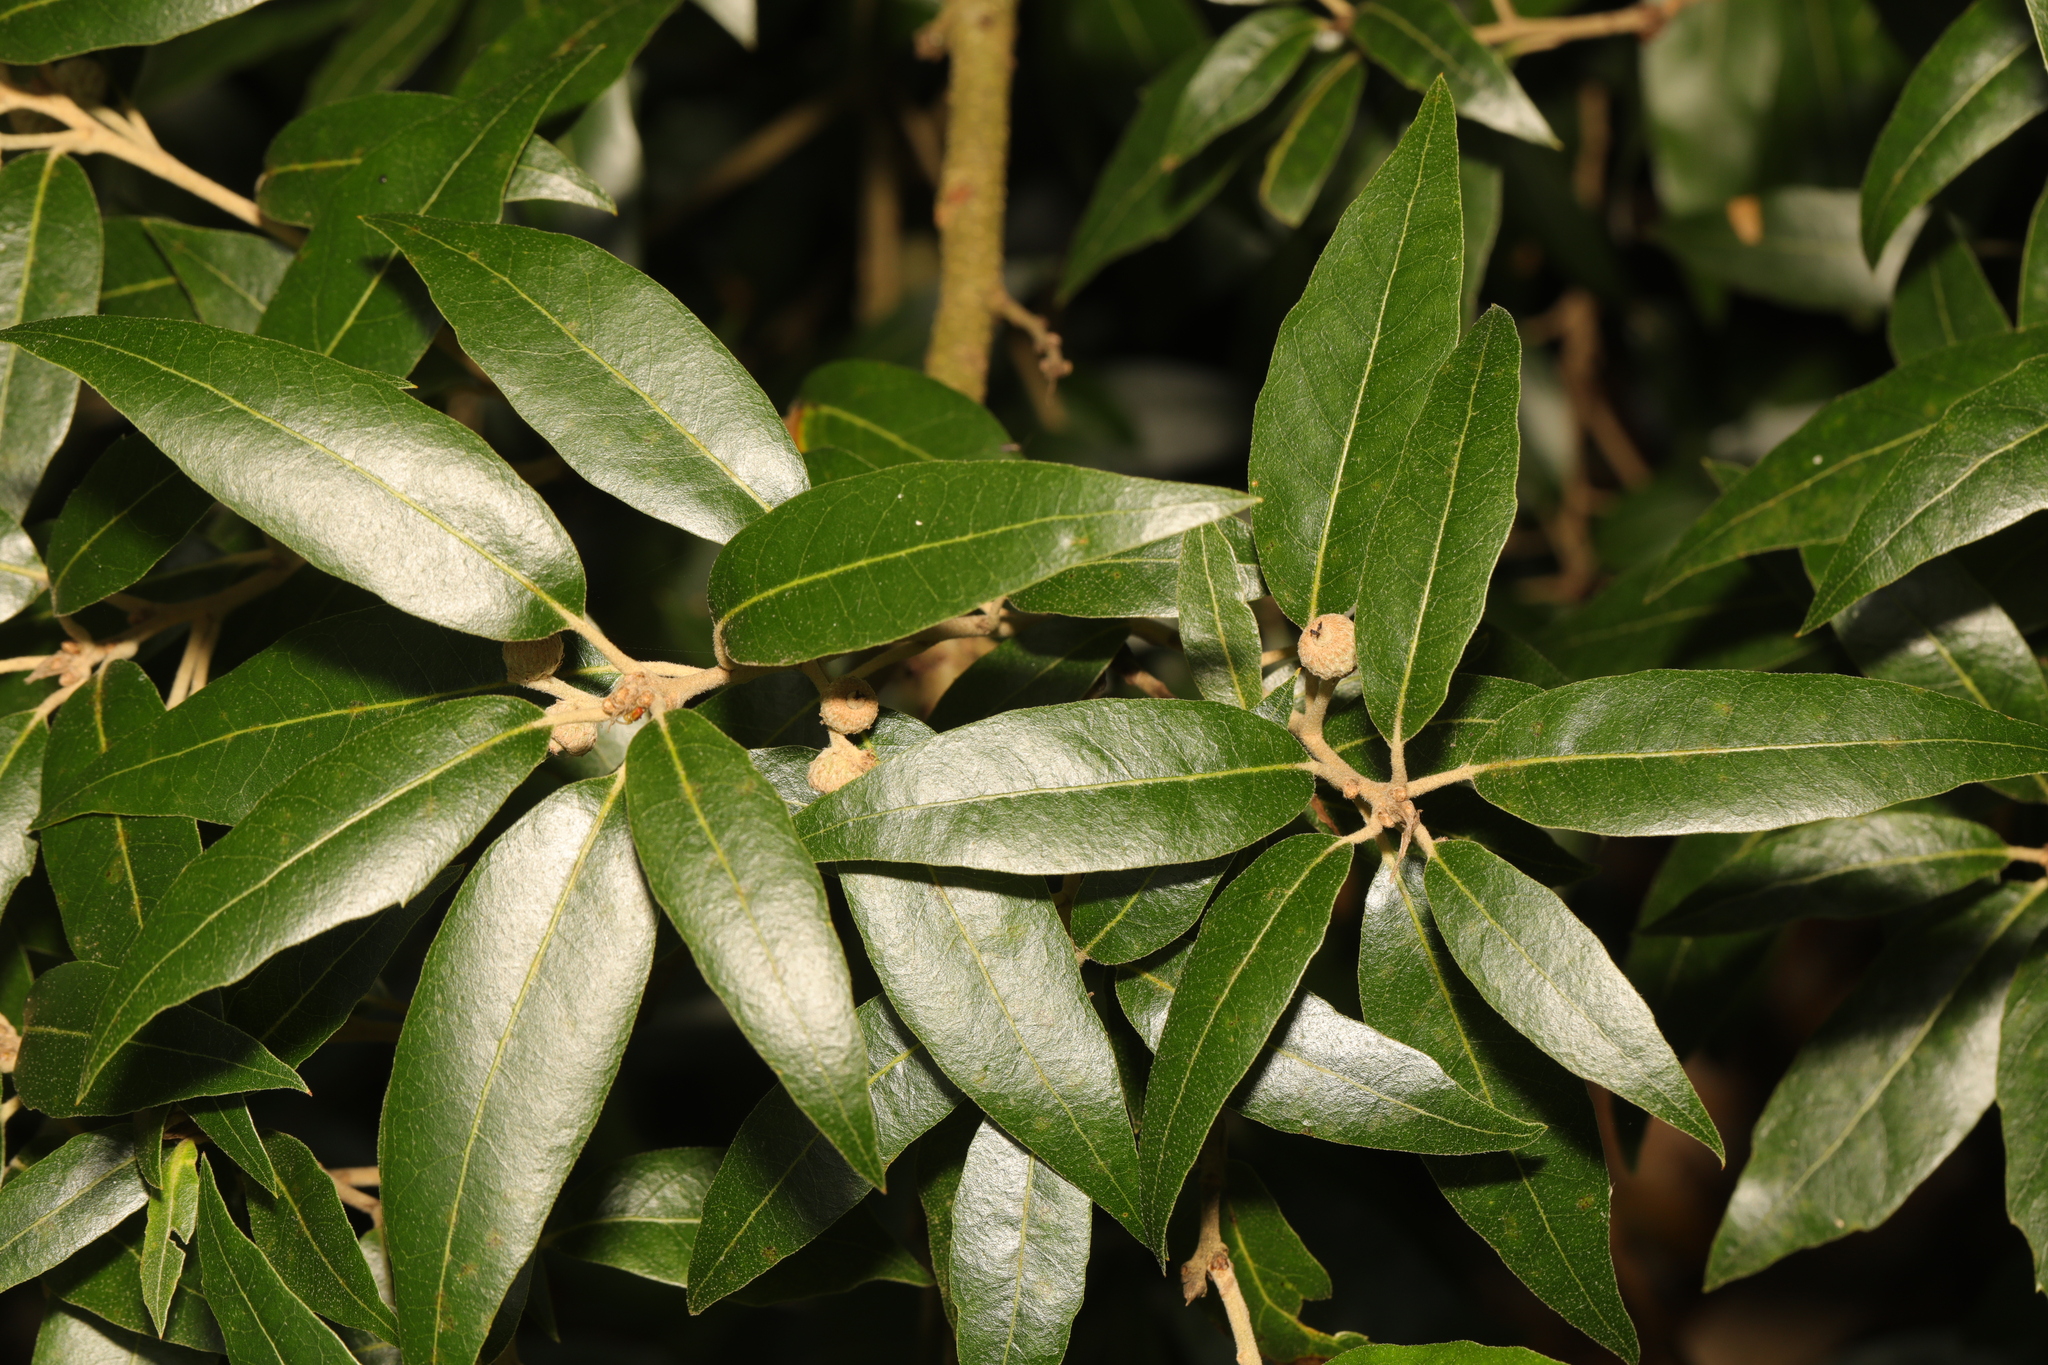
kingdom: Plantae
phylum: Tracheophyta
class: Magnoliopsida
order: Fagales
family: Fagaceae
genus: Quercus
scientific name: Quercus ilex
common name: Evergreen oak
